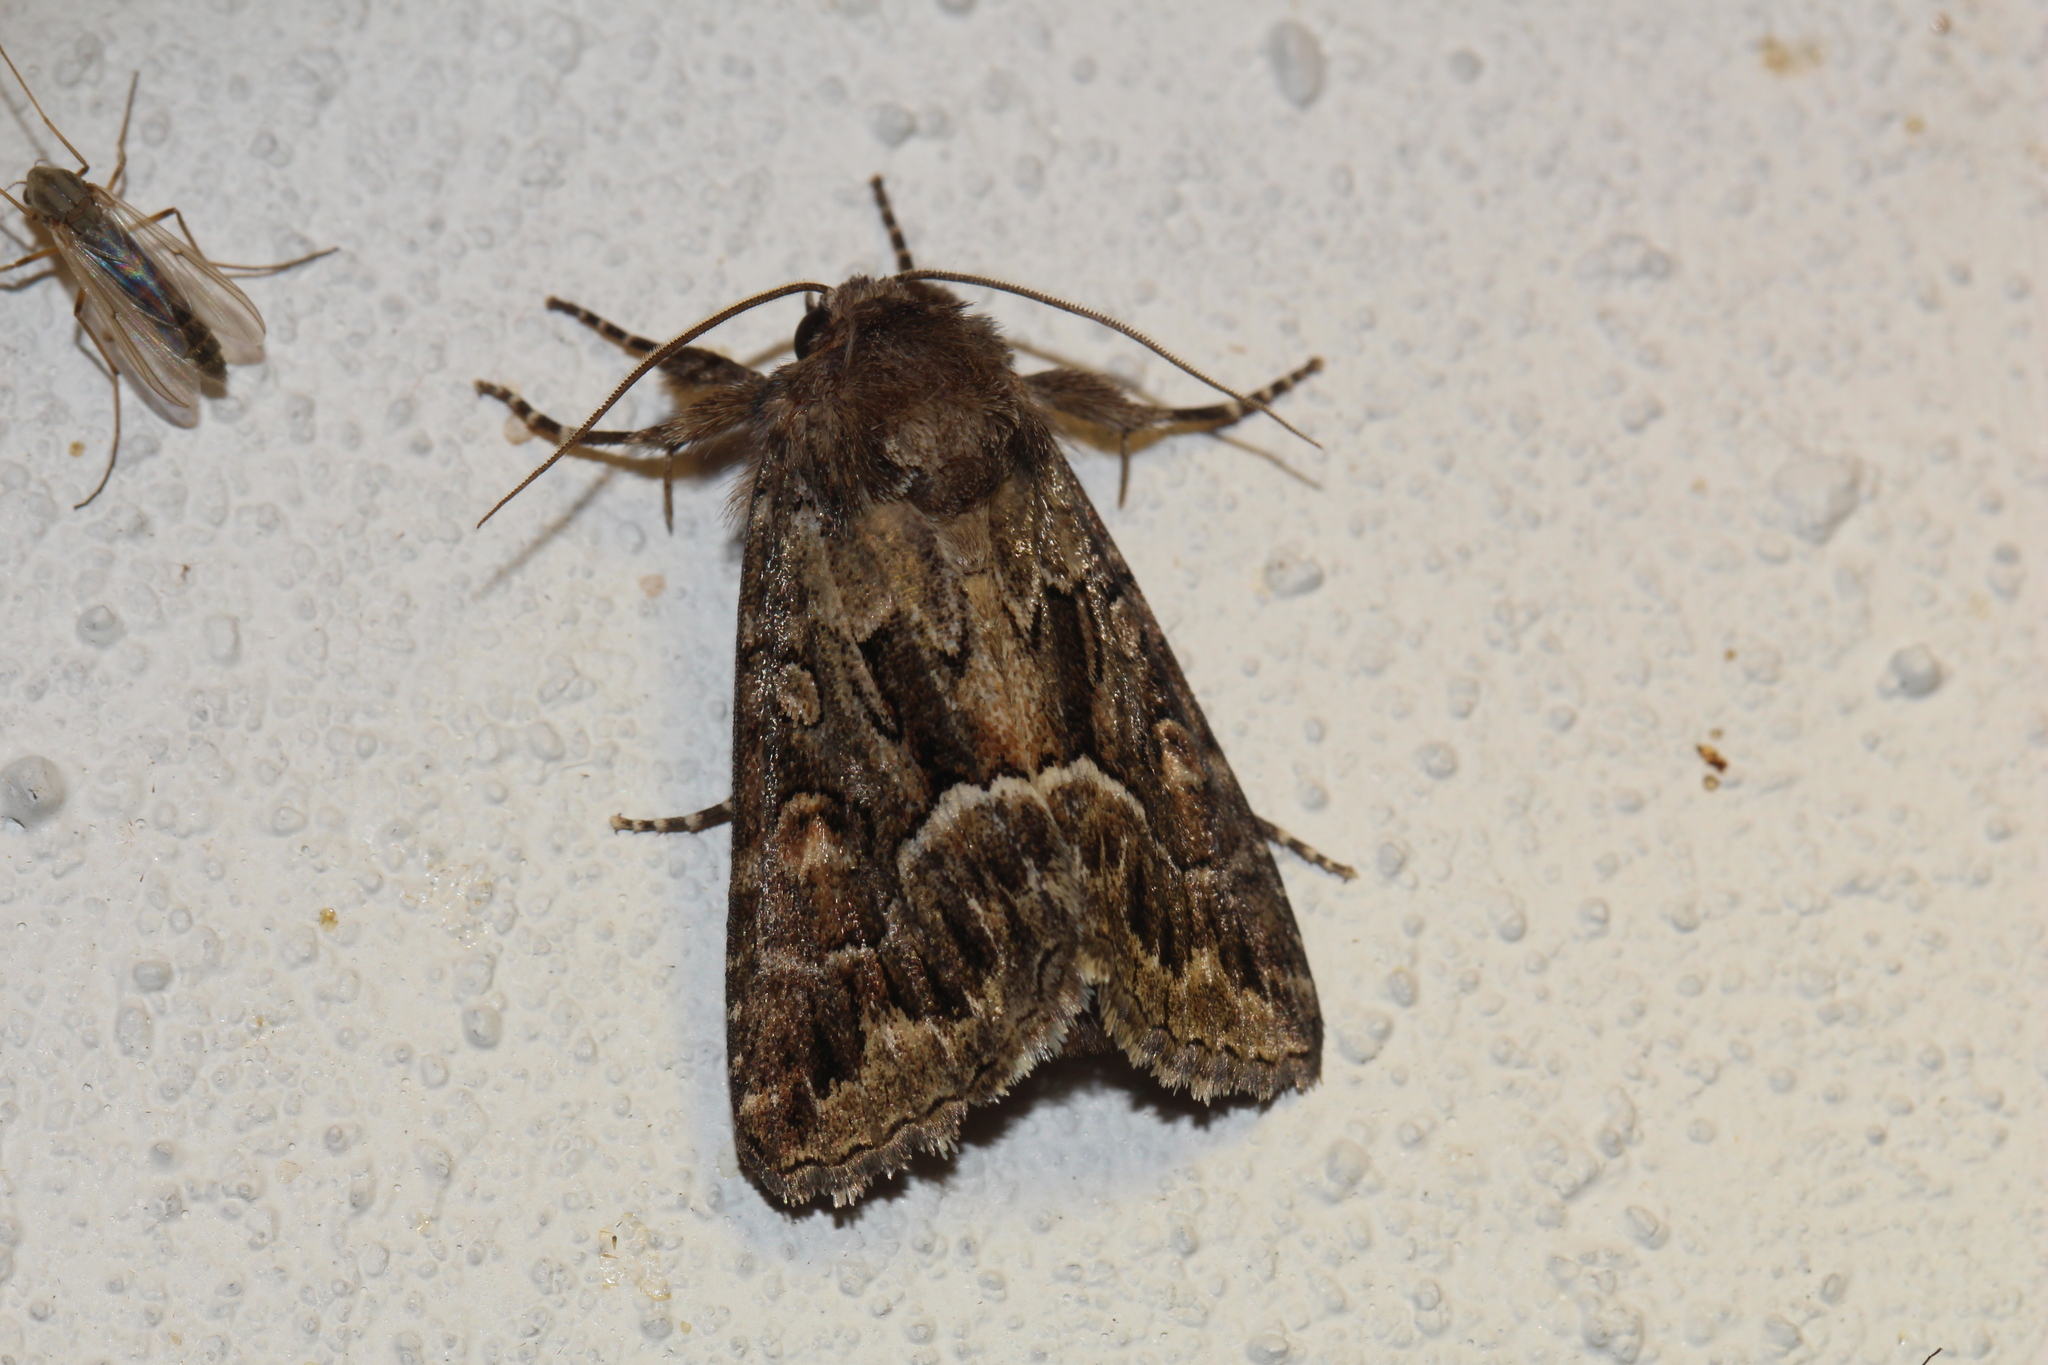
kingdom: Animalia
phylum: Arthropoda
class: Insecta
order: Lepidoptera
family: Noctuidae
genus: Thalpophila
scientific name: Thalpophila matura
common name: Straw underwing
